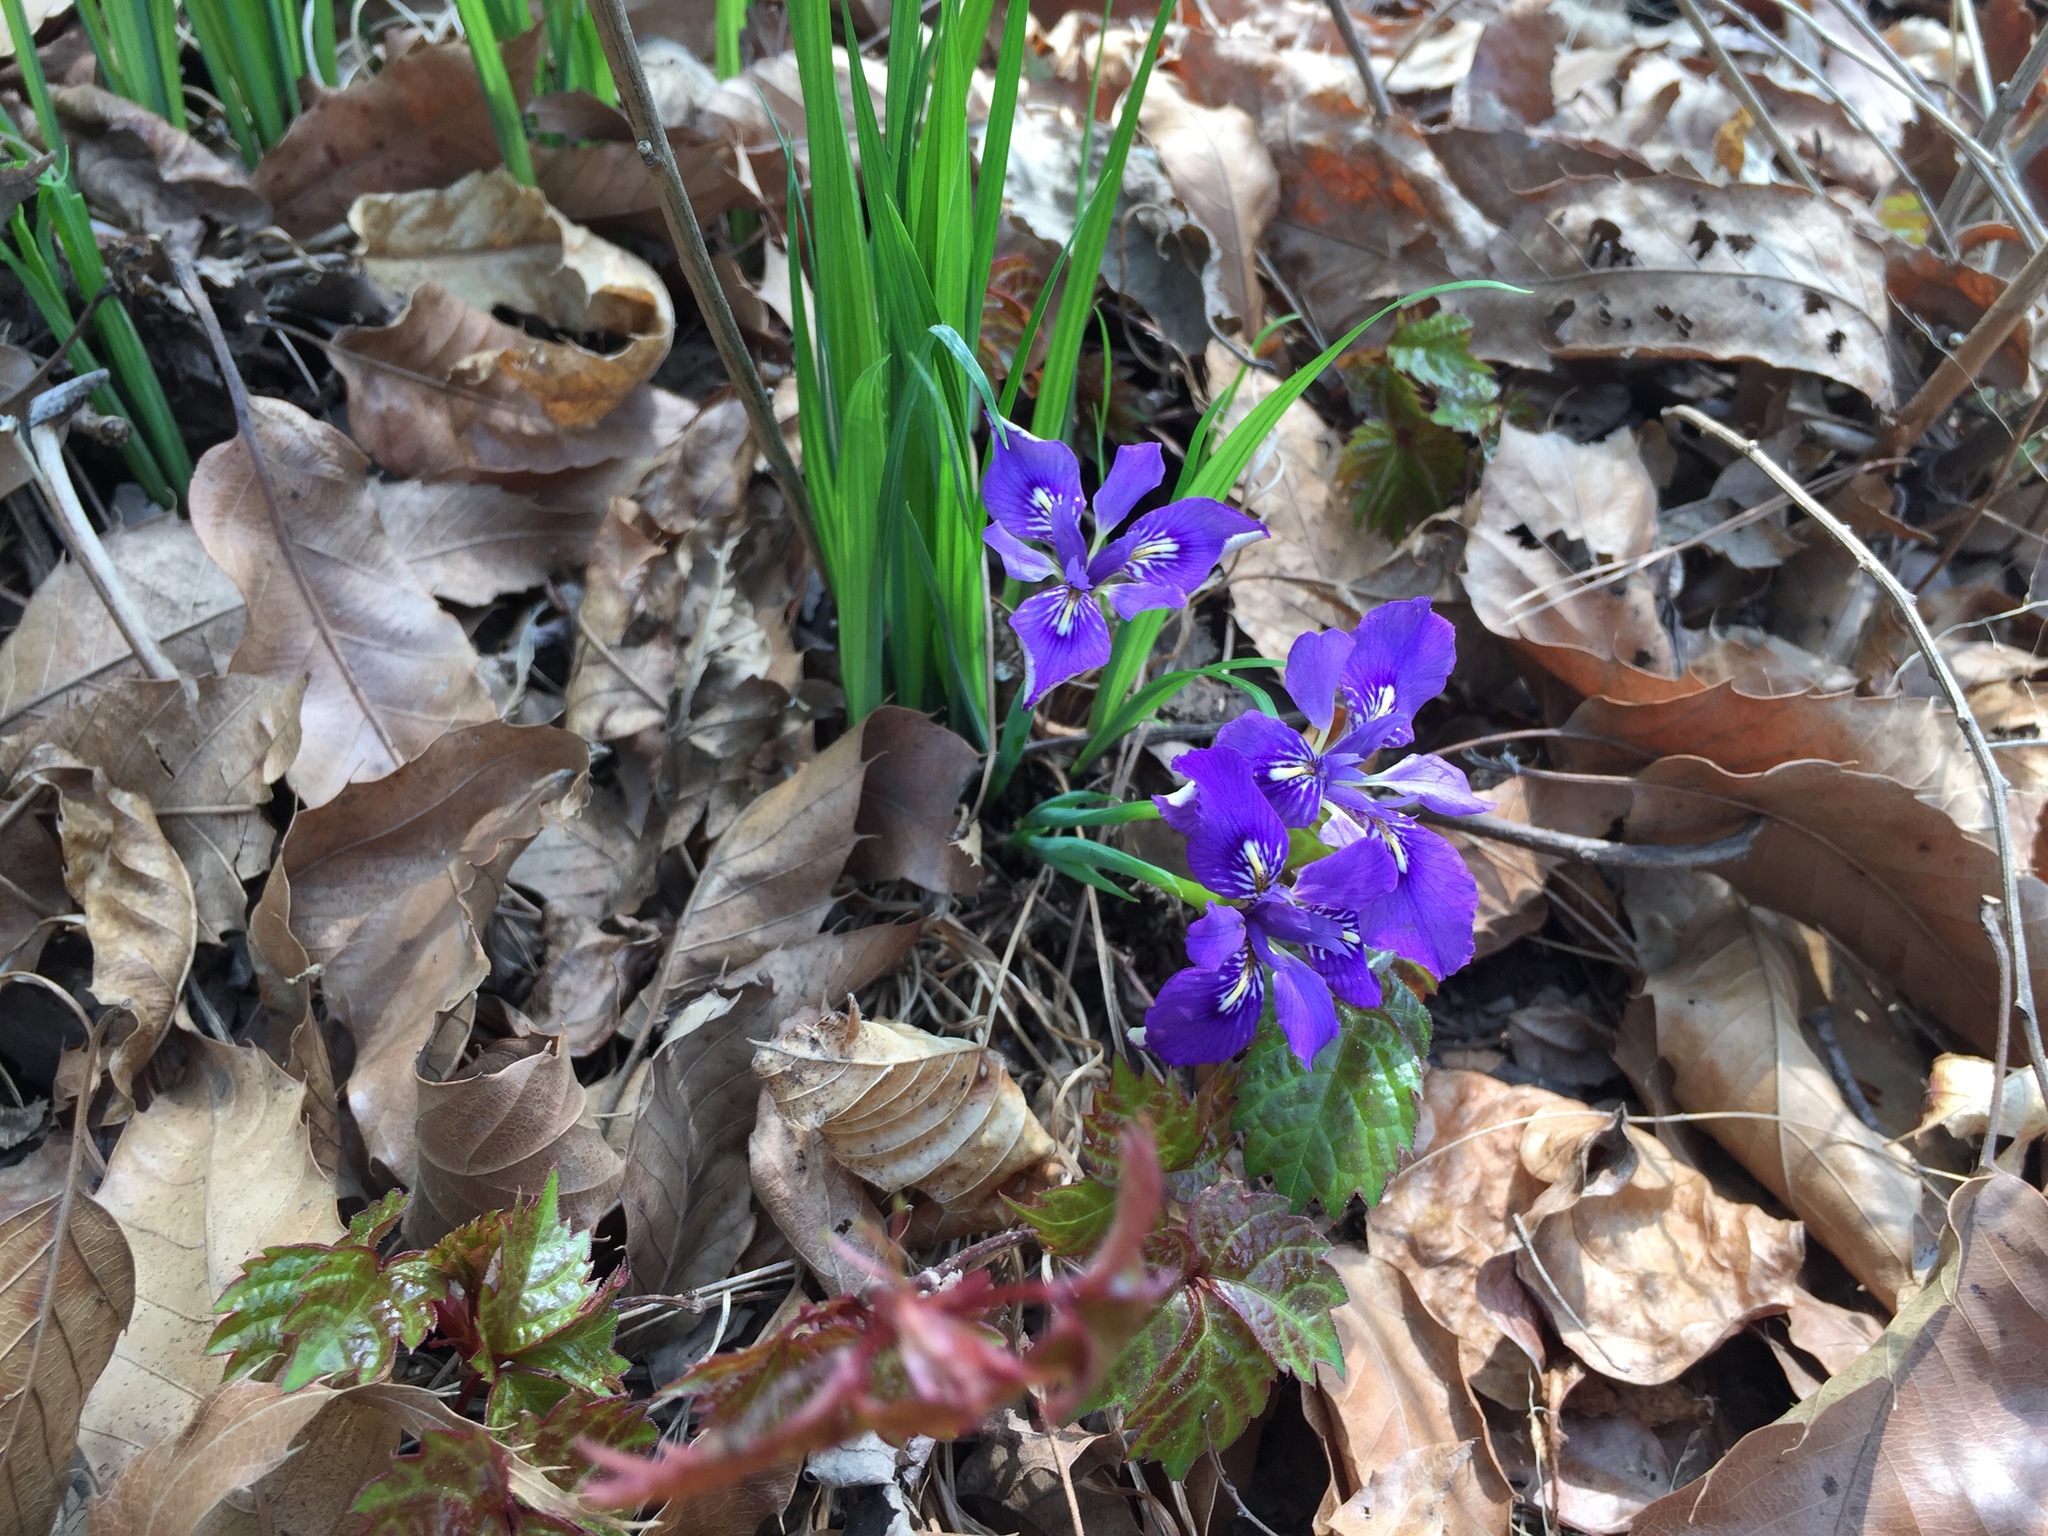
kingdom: Plantae
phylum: Tracheophyta
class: Liliopsida
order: Asparagales
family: Iridaceae
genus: Iris
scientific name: Iris rossii
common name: Long-tail iris
